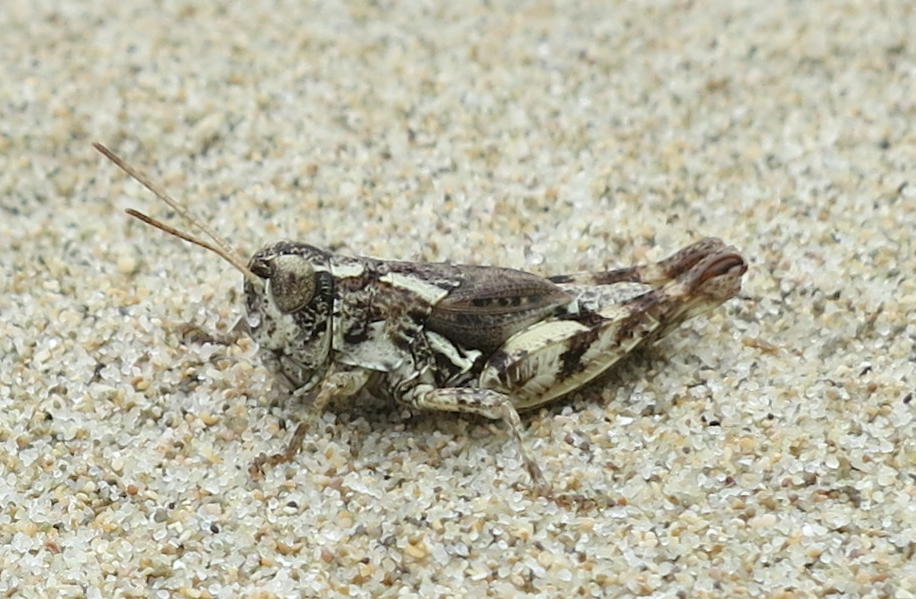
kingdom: Animalia
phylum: Arthropoda
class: Insecta
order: Orthoptera
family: Acrididae
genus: Phaulacridium
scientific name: Phaulacridium marginale
